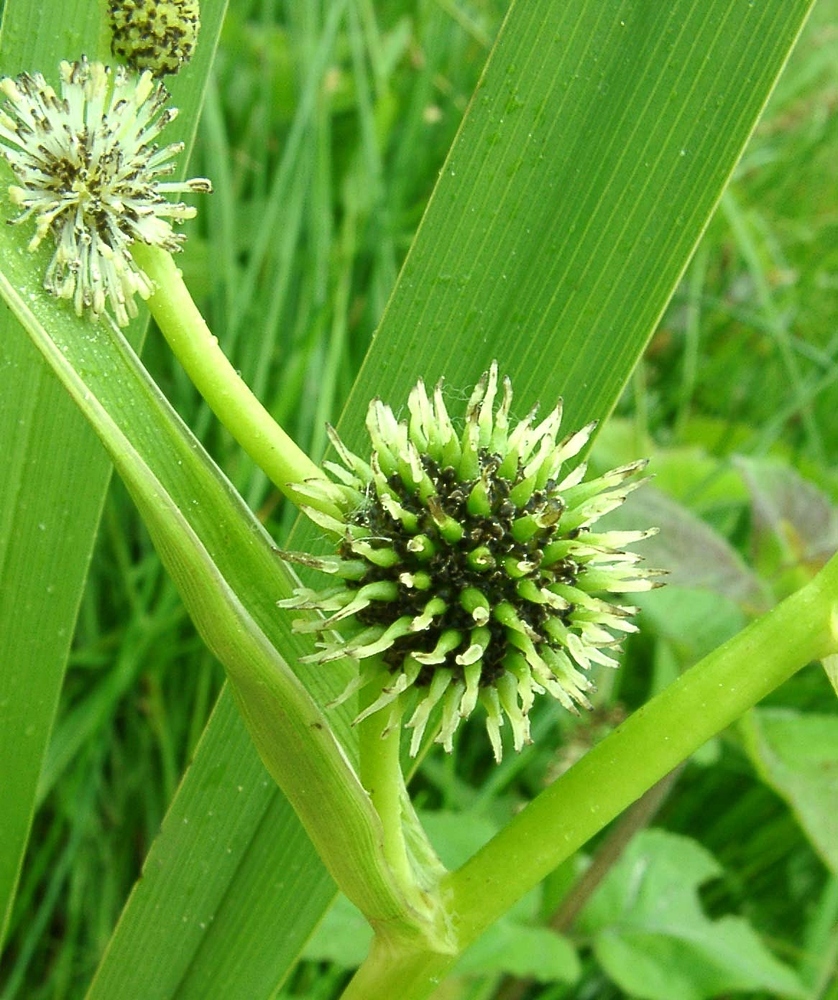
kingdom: Plantae
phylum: Tracheophyta
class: Liliopsida
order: Poales
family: Typhaceae
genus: Sparganium
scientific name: Sparganium erectum
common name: Branched bur-reed
